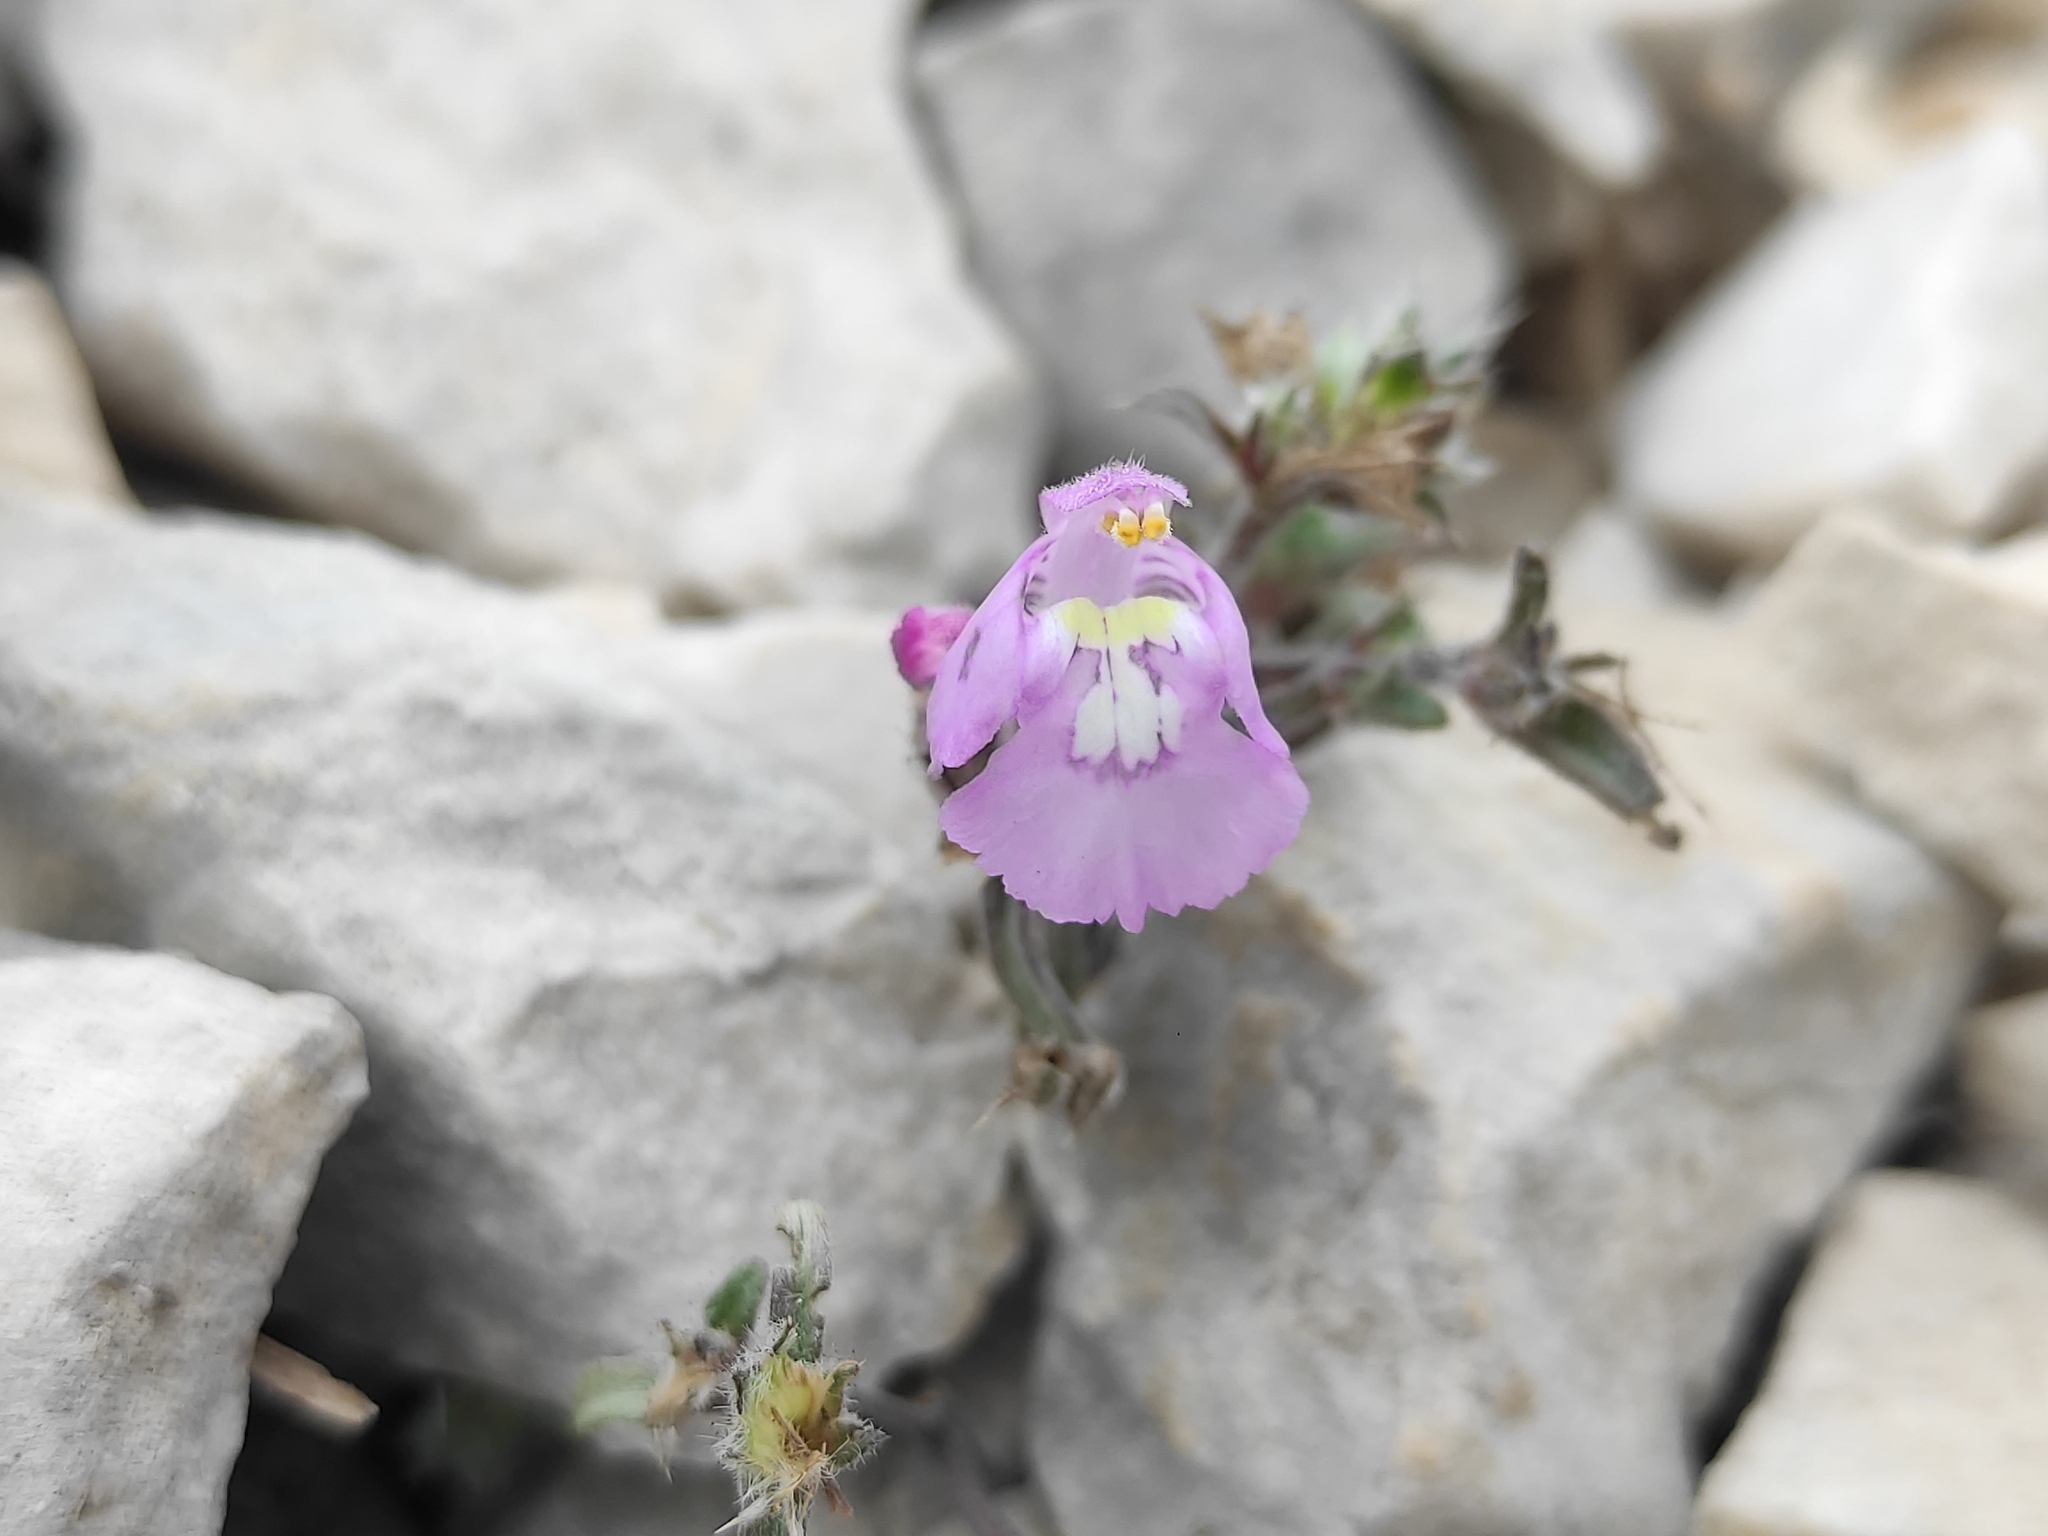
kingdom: Plantae
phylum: Tracheophyta
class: Magnoliopsida
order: Lamiales
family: Lamiaceae
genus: Galeopsis
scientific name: Galeopsis angustifolia
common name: Red hemp-nettle
